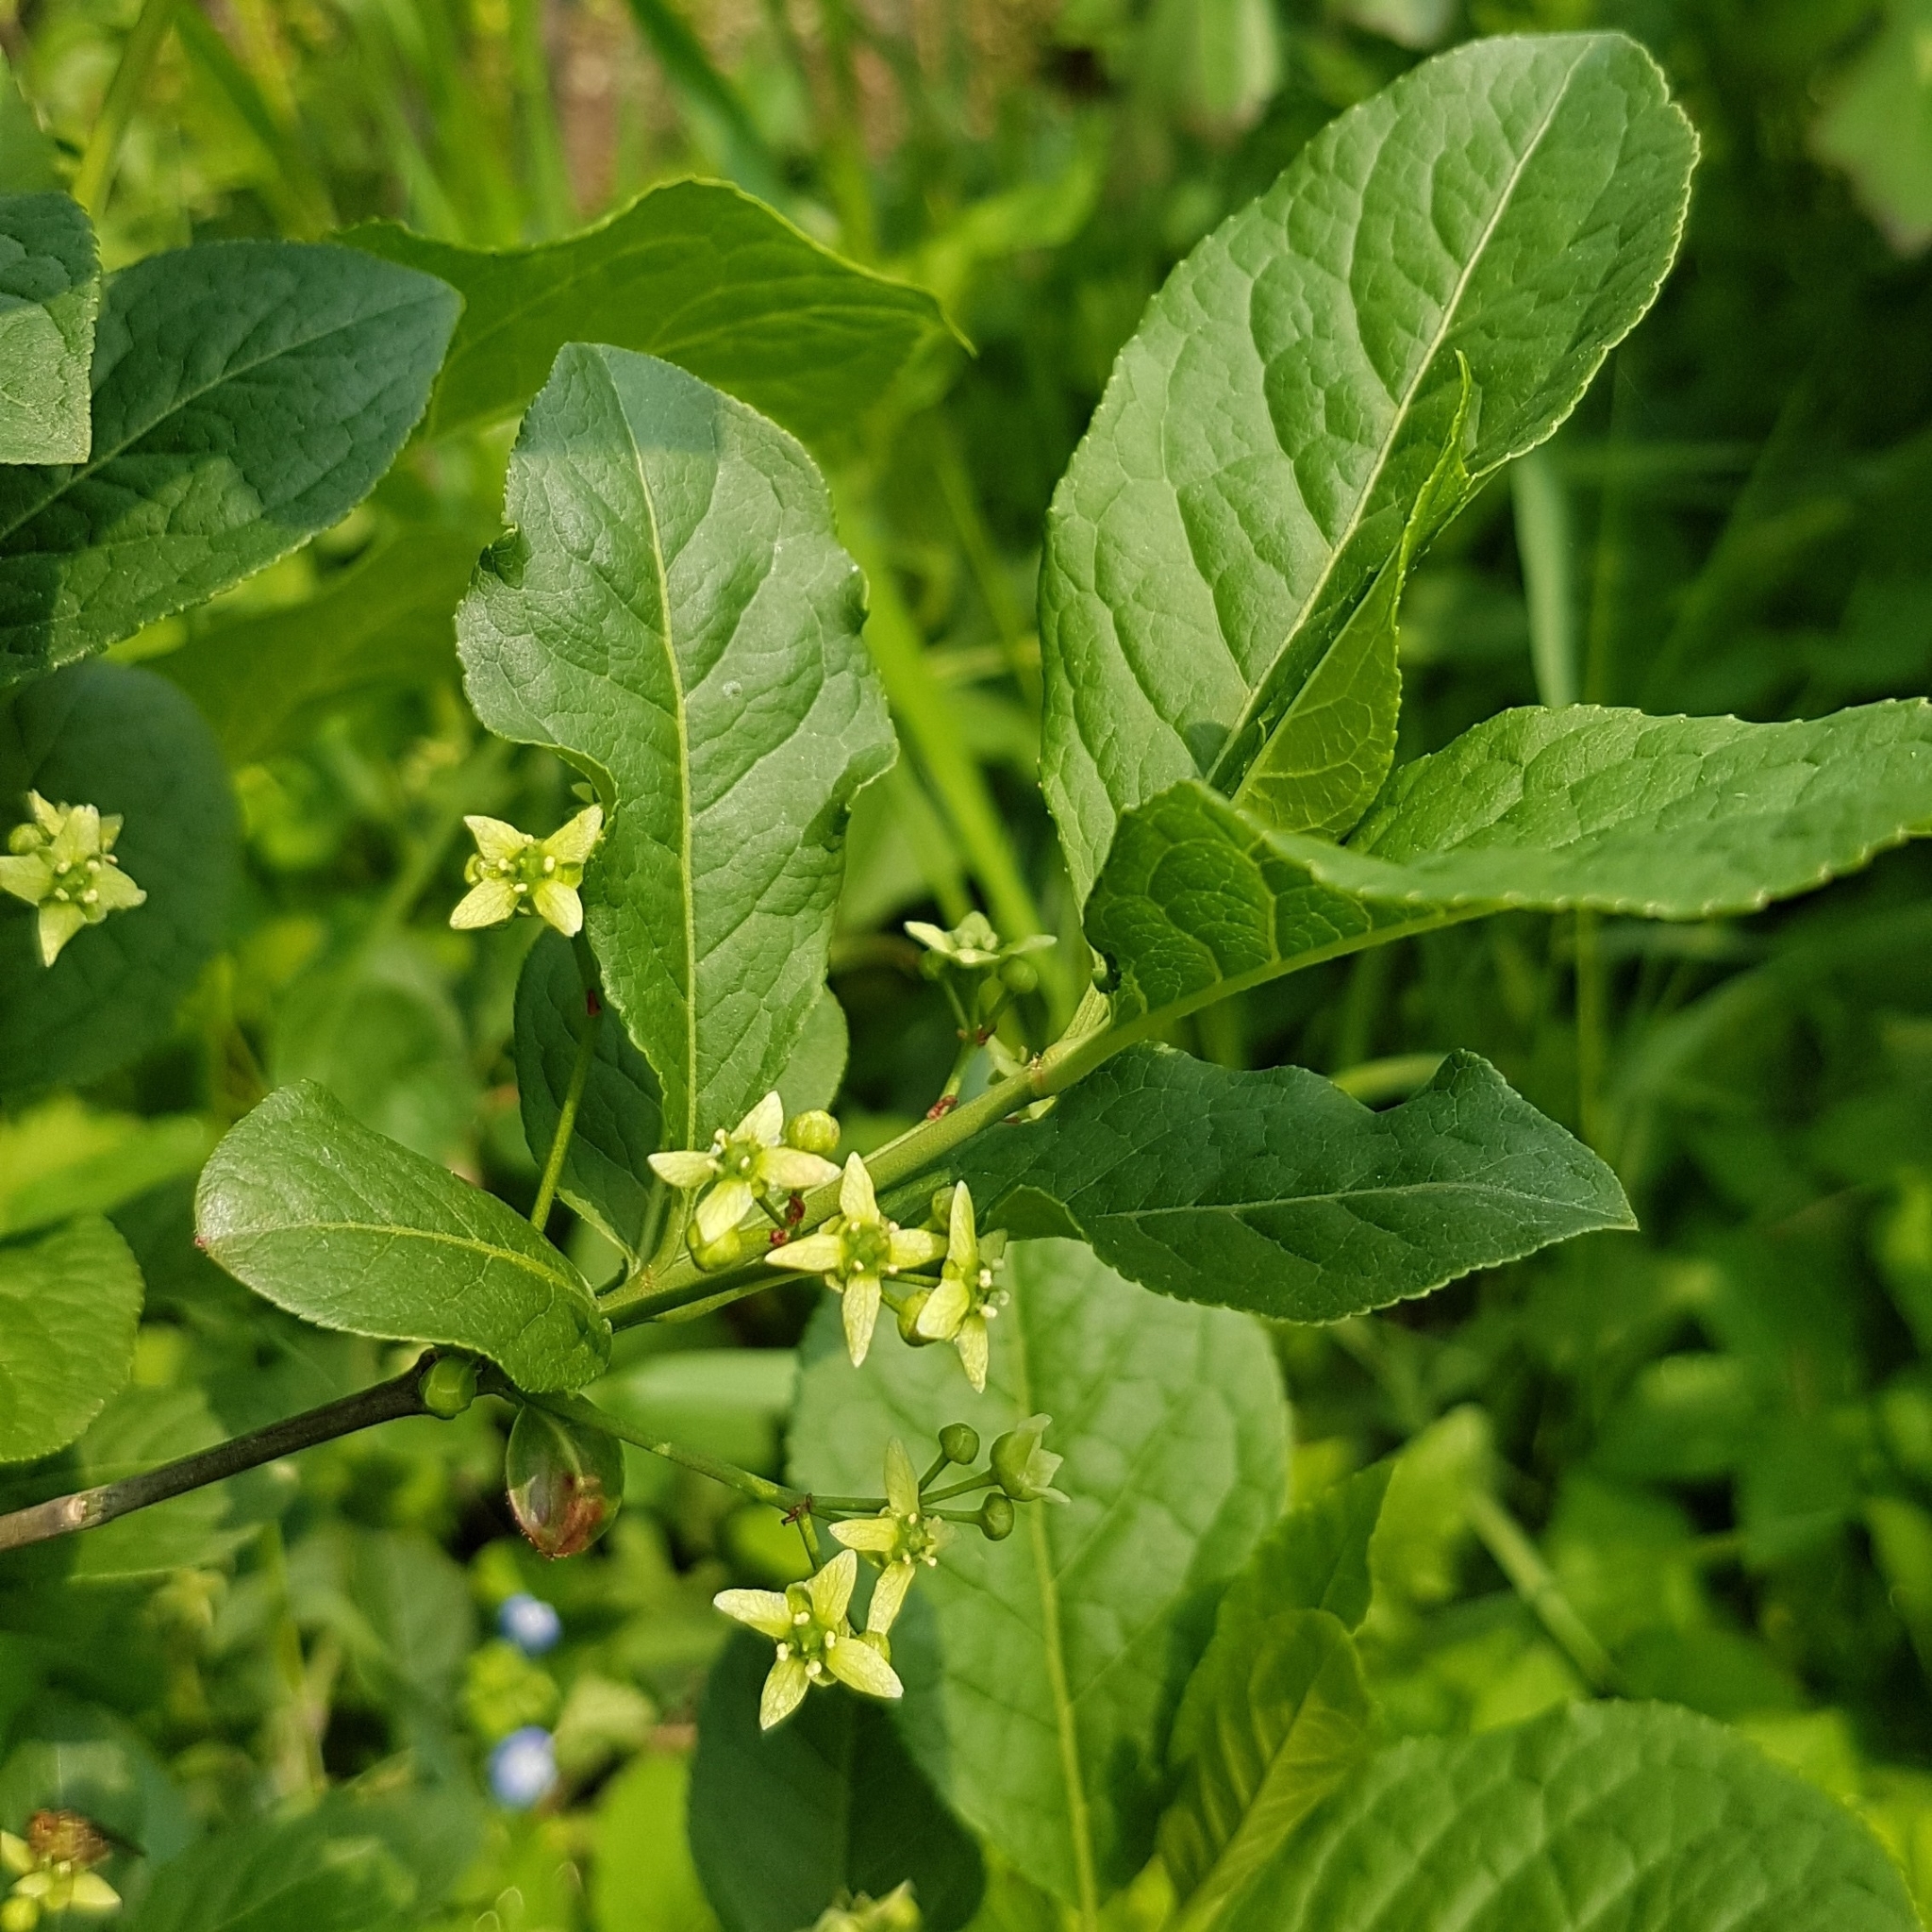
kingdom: Plantae
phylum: Tracheophyta
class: Magnoliopsida
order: Celastrales
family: Celastraceae
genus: Euonymus
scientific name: Euonymus europaeus
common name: Spindle
